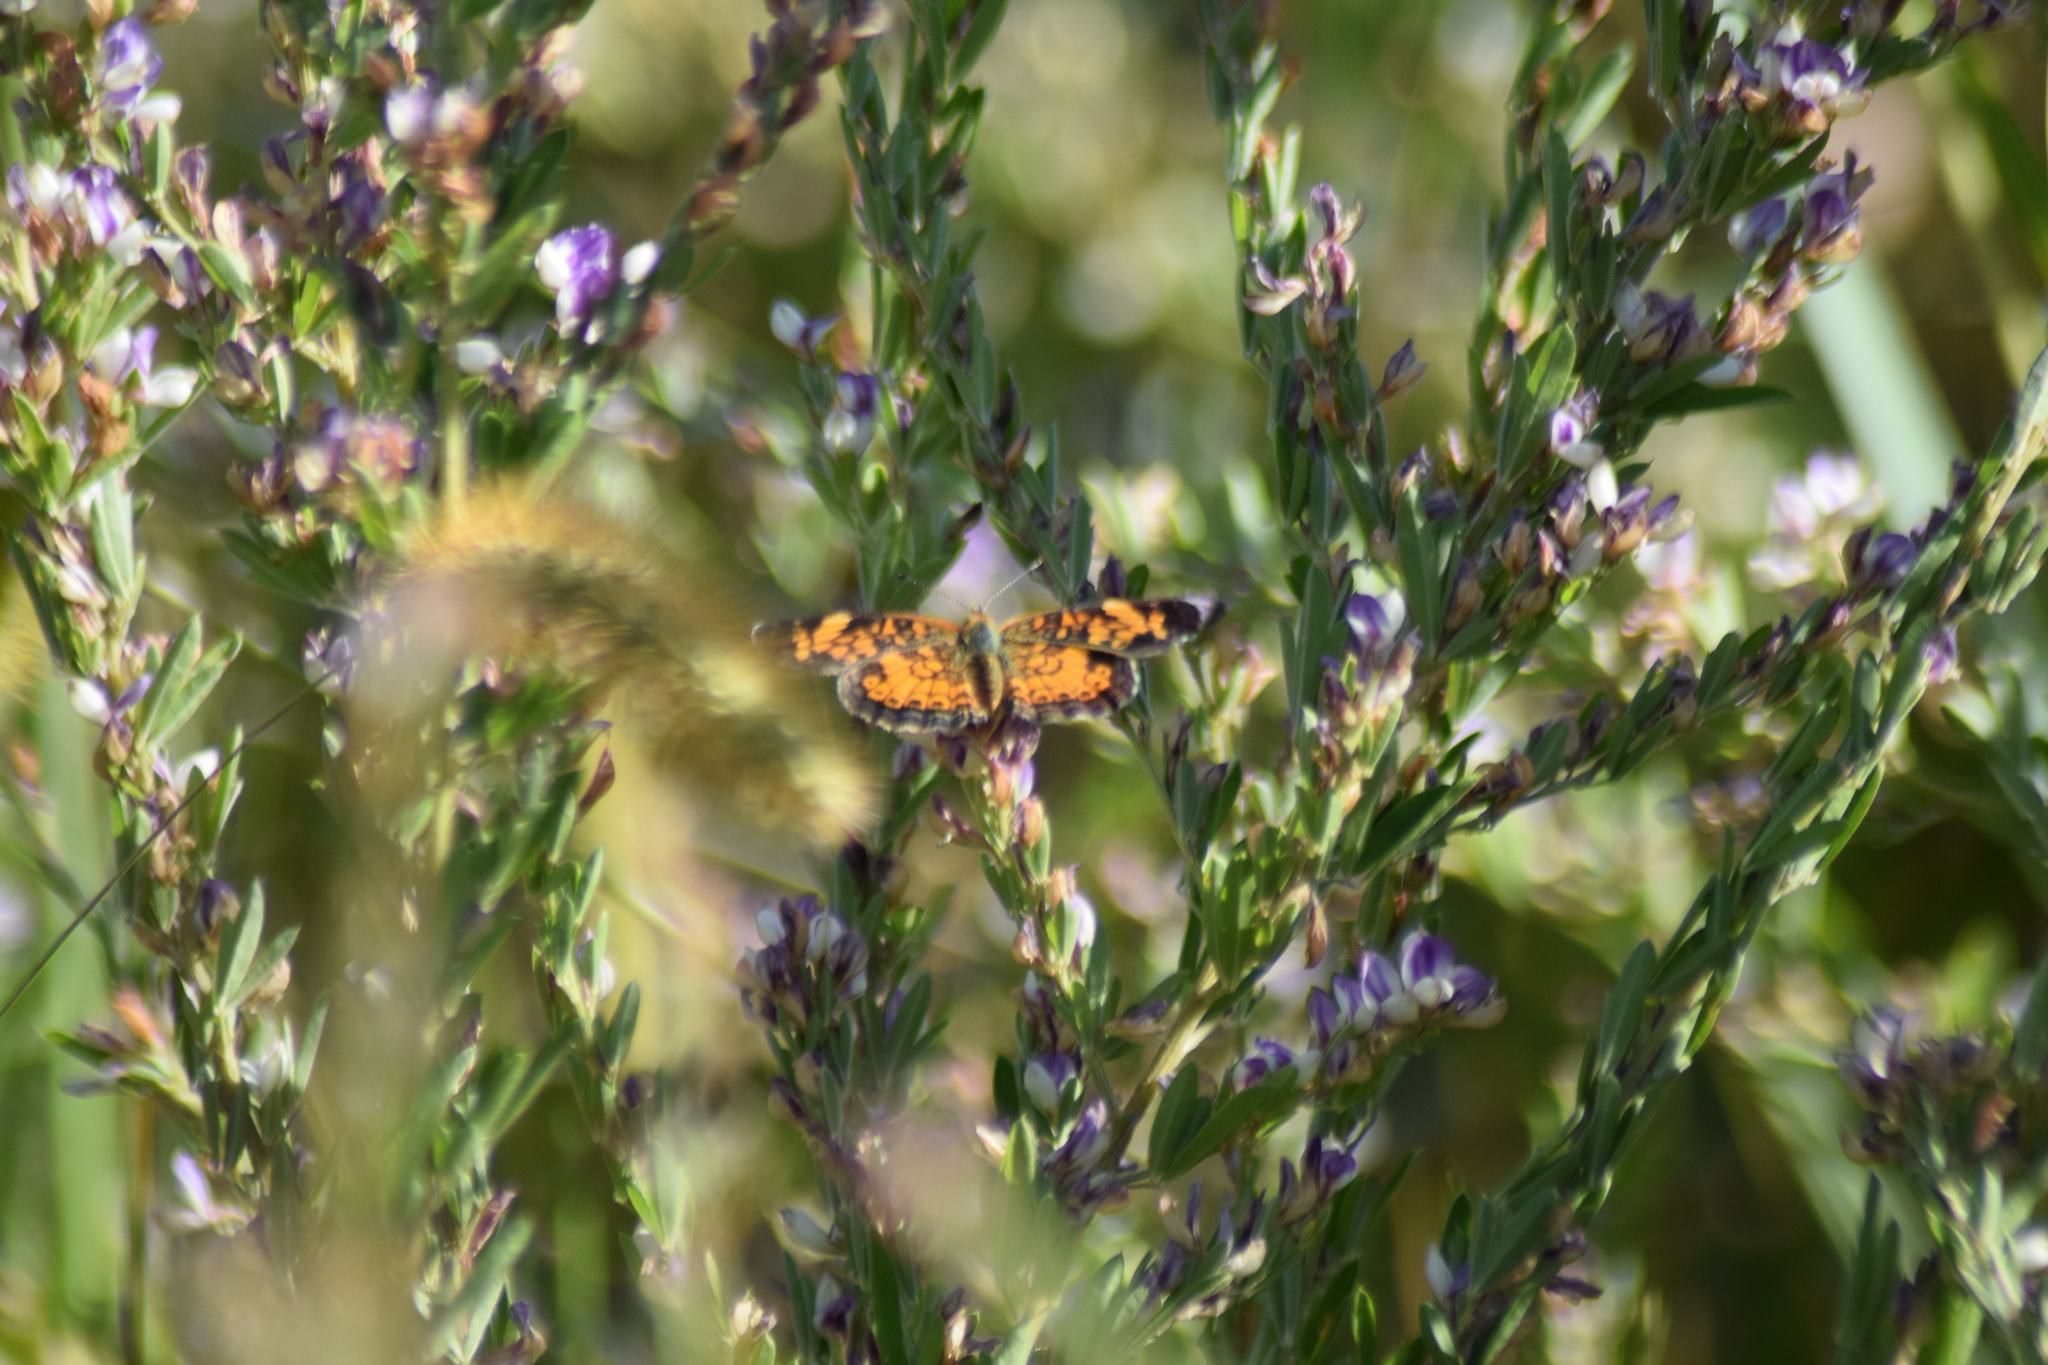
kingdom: Animalia
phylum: Arthropoda
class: Insecta
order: Lepidoptera
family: Nymphalidae
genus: Phyciodes
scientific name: Phyciodes tharos
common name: Pearl crescent
